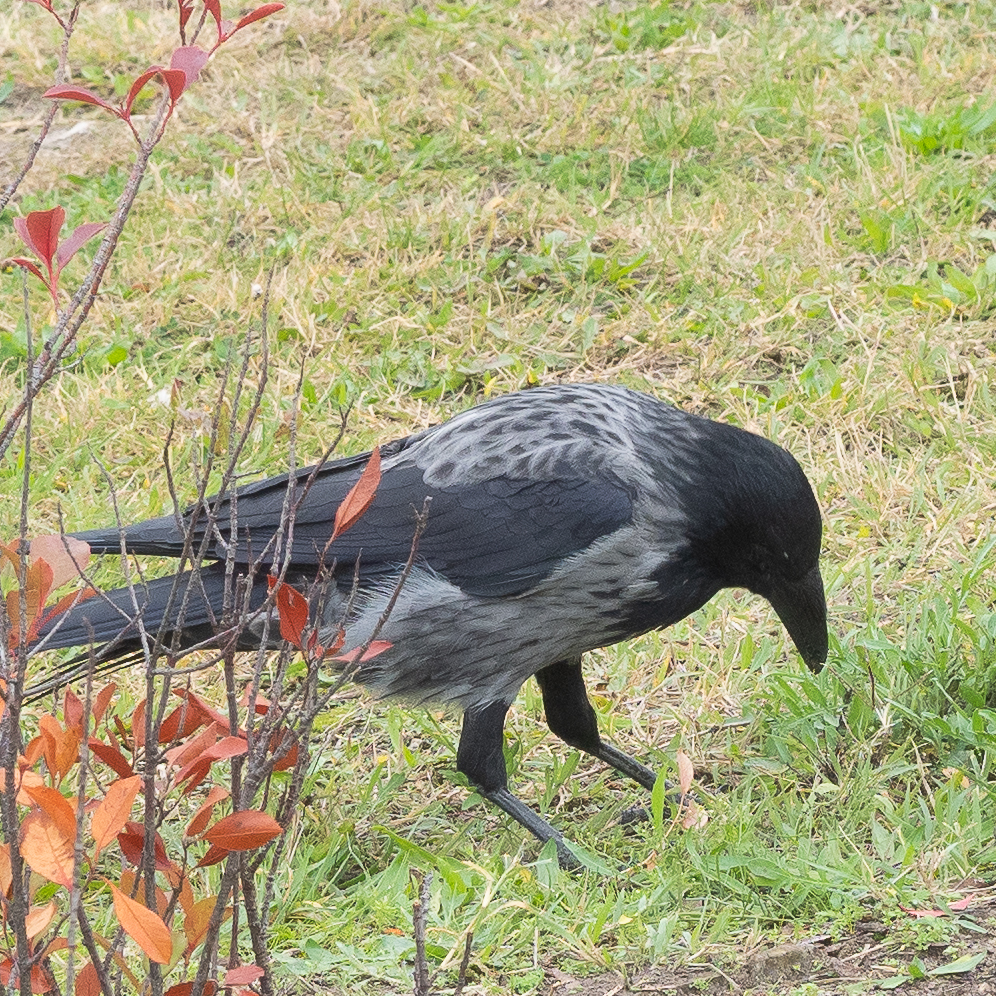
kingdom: Animalia
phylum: Chordata
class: Aves
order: Passeriformes
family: Corvidae
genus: Corvus
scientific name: Corvus
